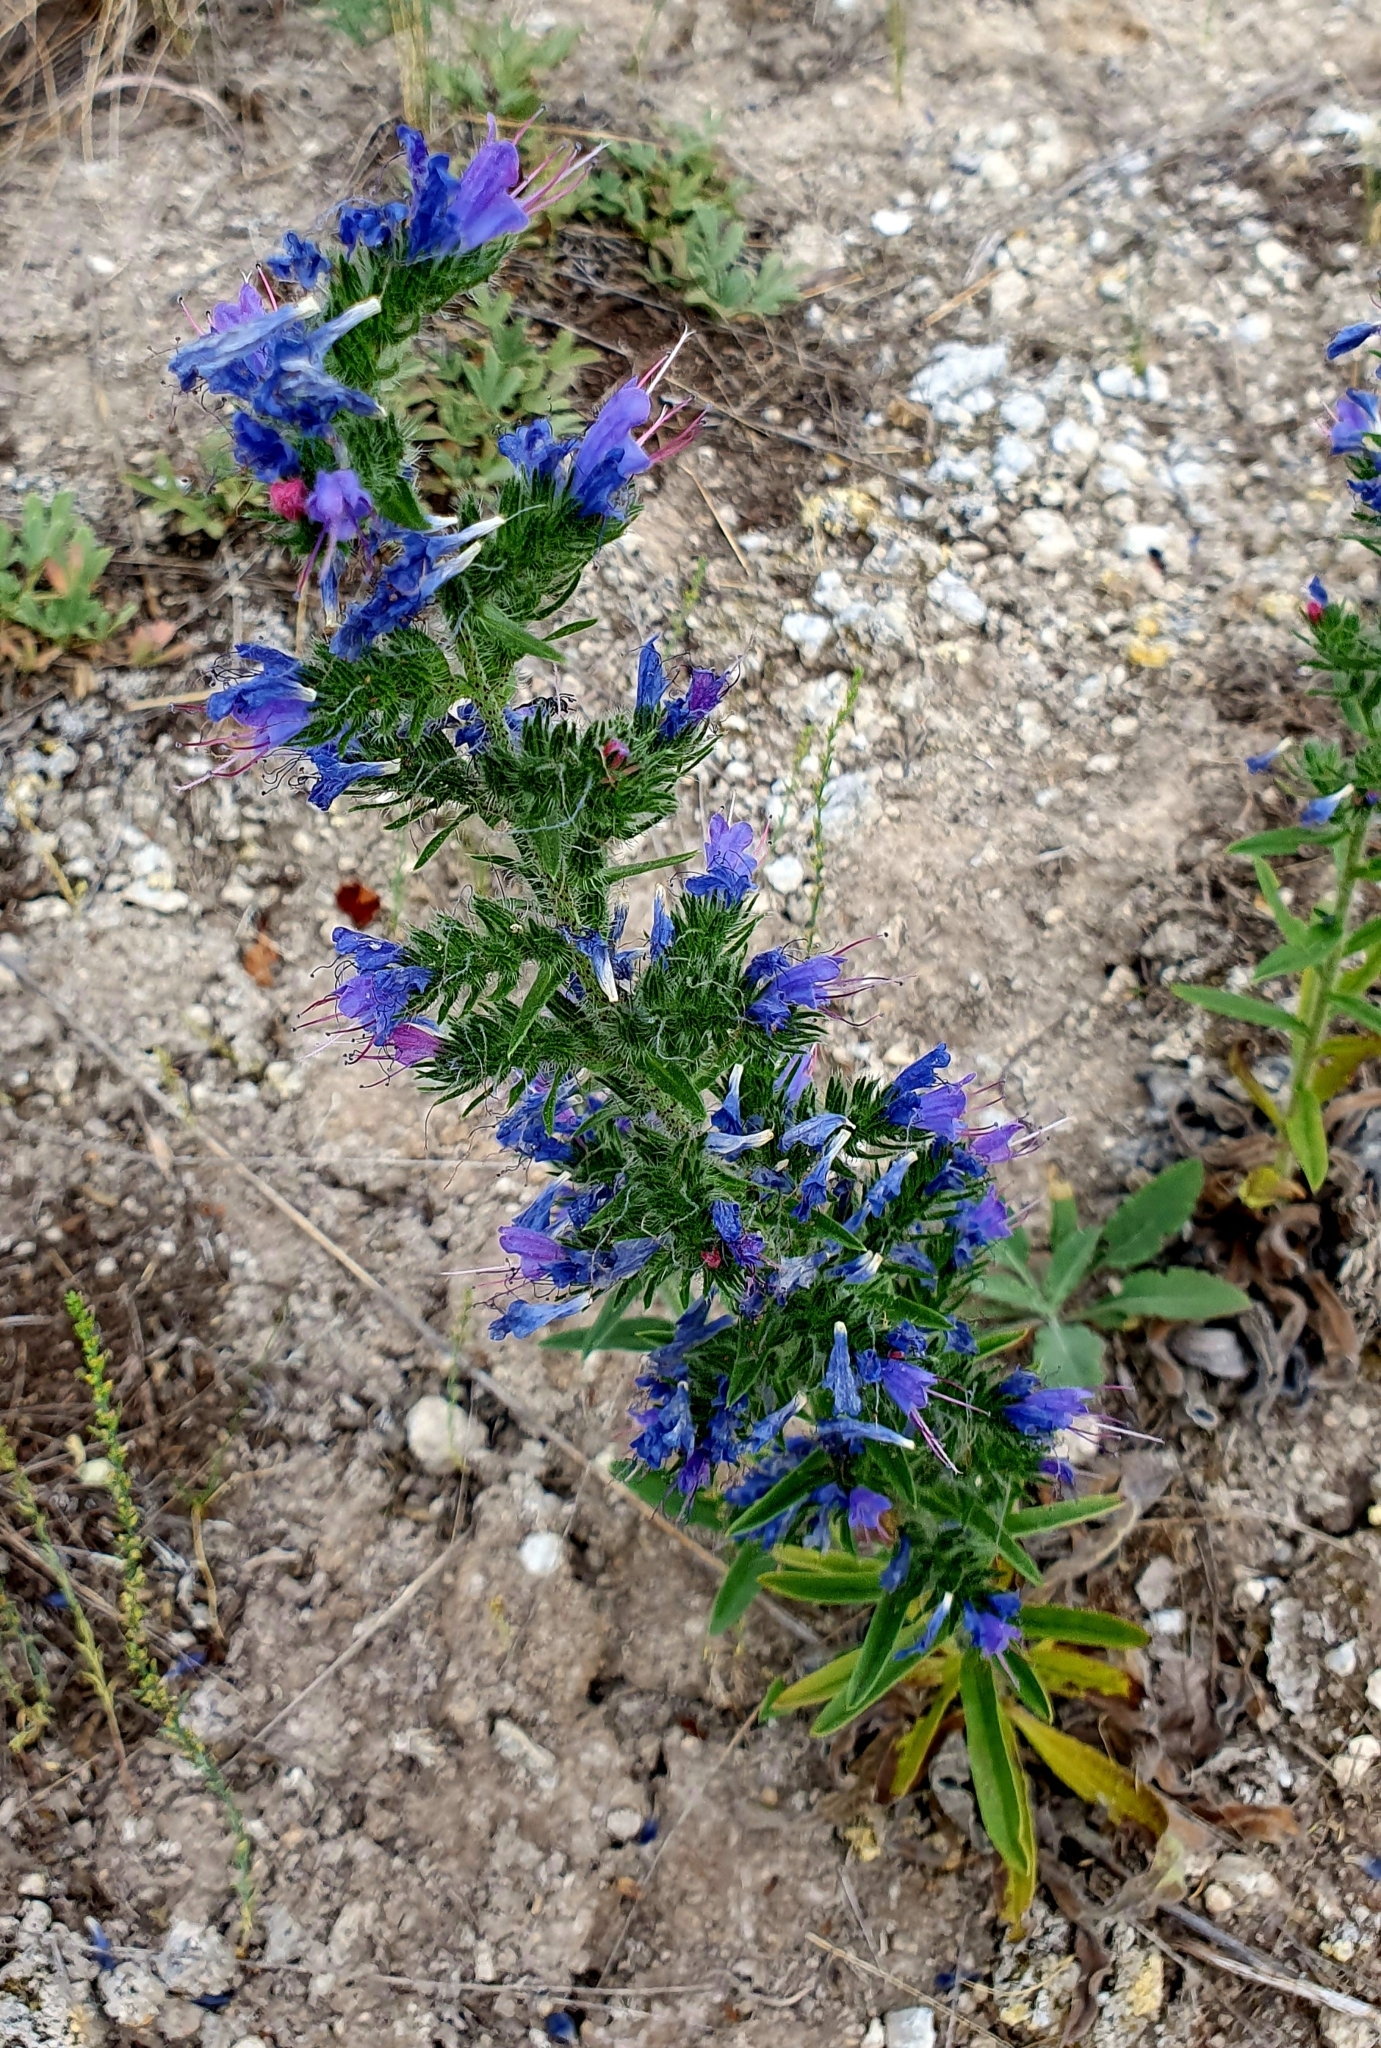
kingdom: Plantae
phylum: Tracheophyta
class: Magnoliopsida
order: Boraginales
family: Boraginaceae
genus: Echium
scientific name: Echium vulgare
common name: Common viper's bugloss
